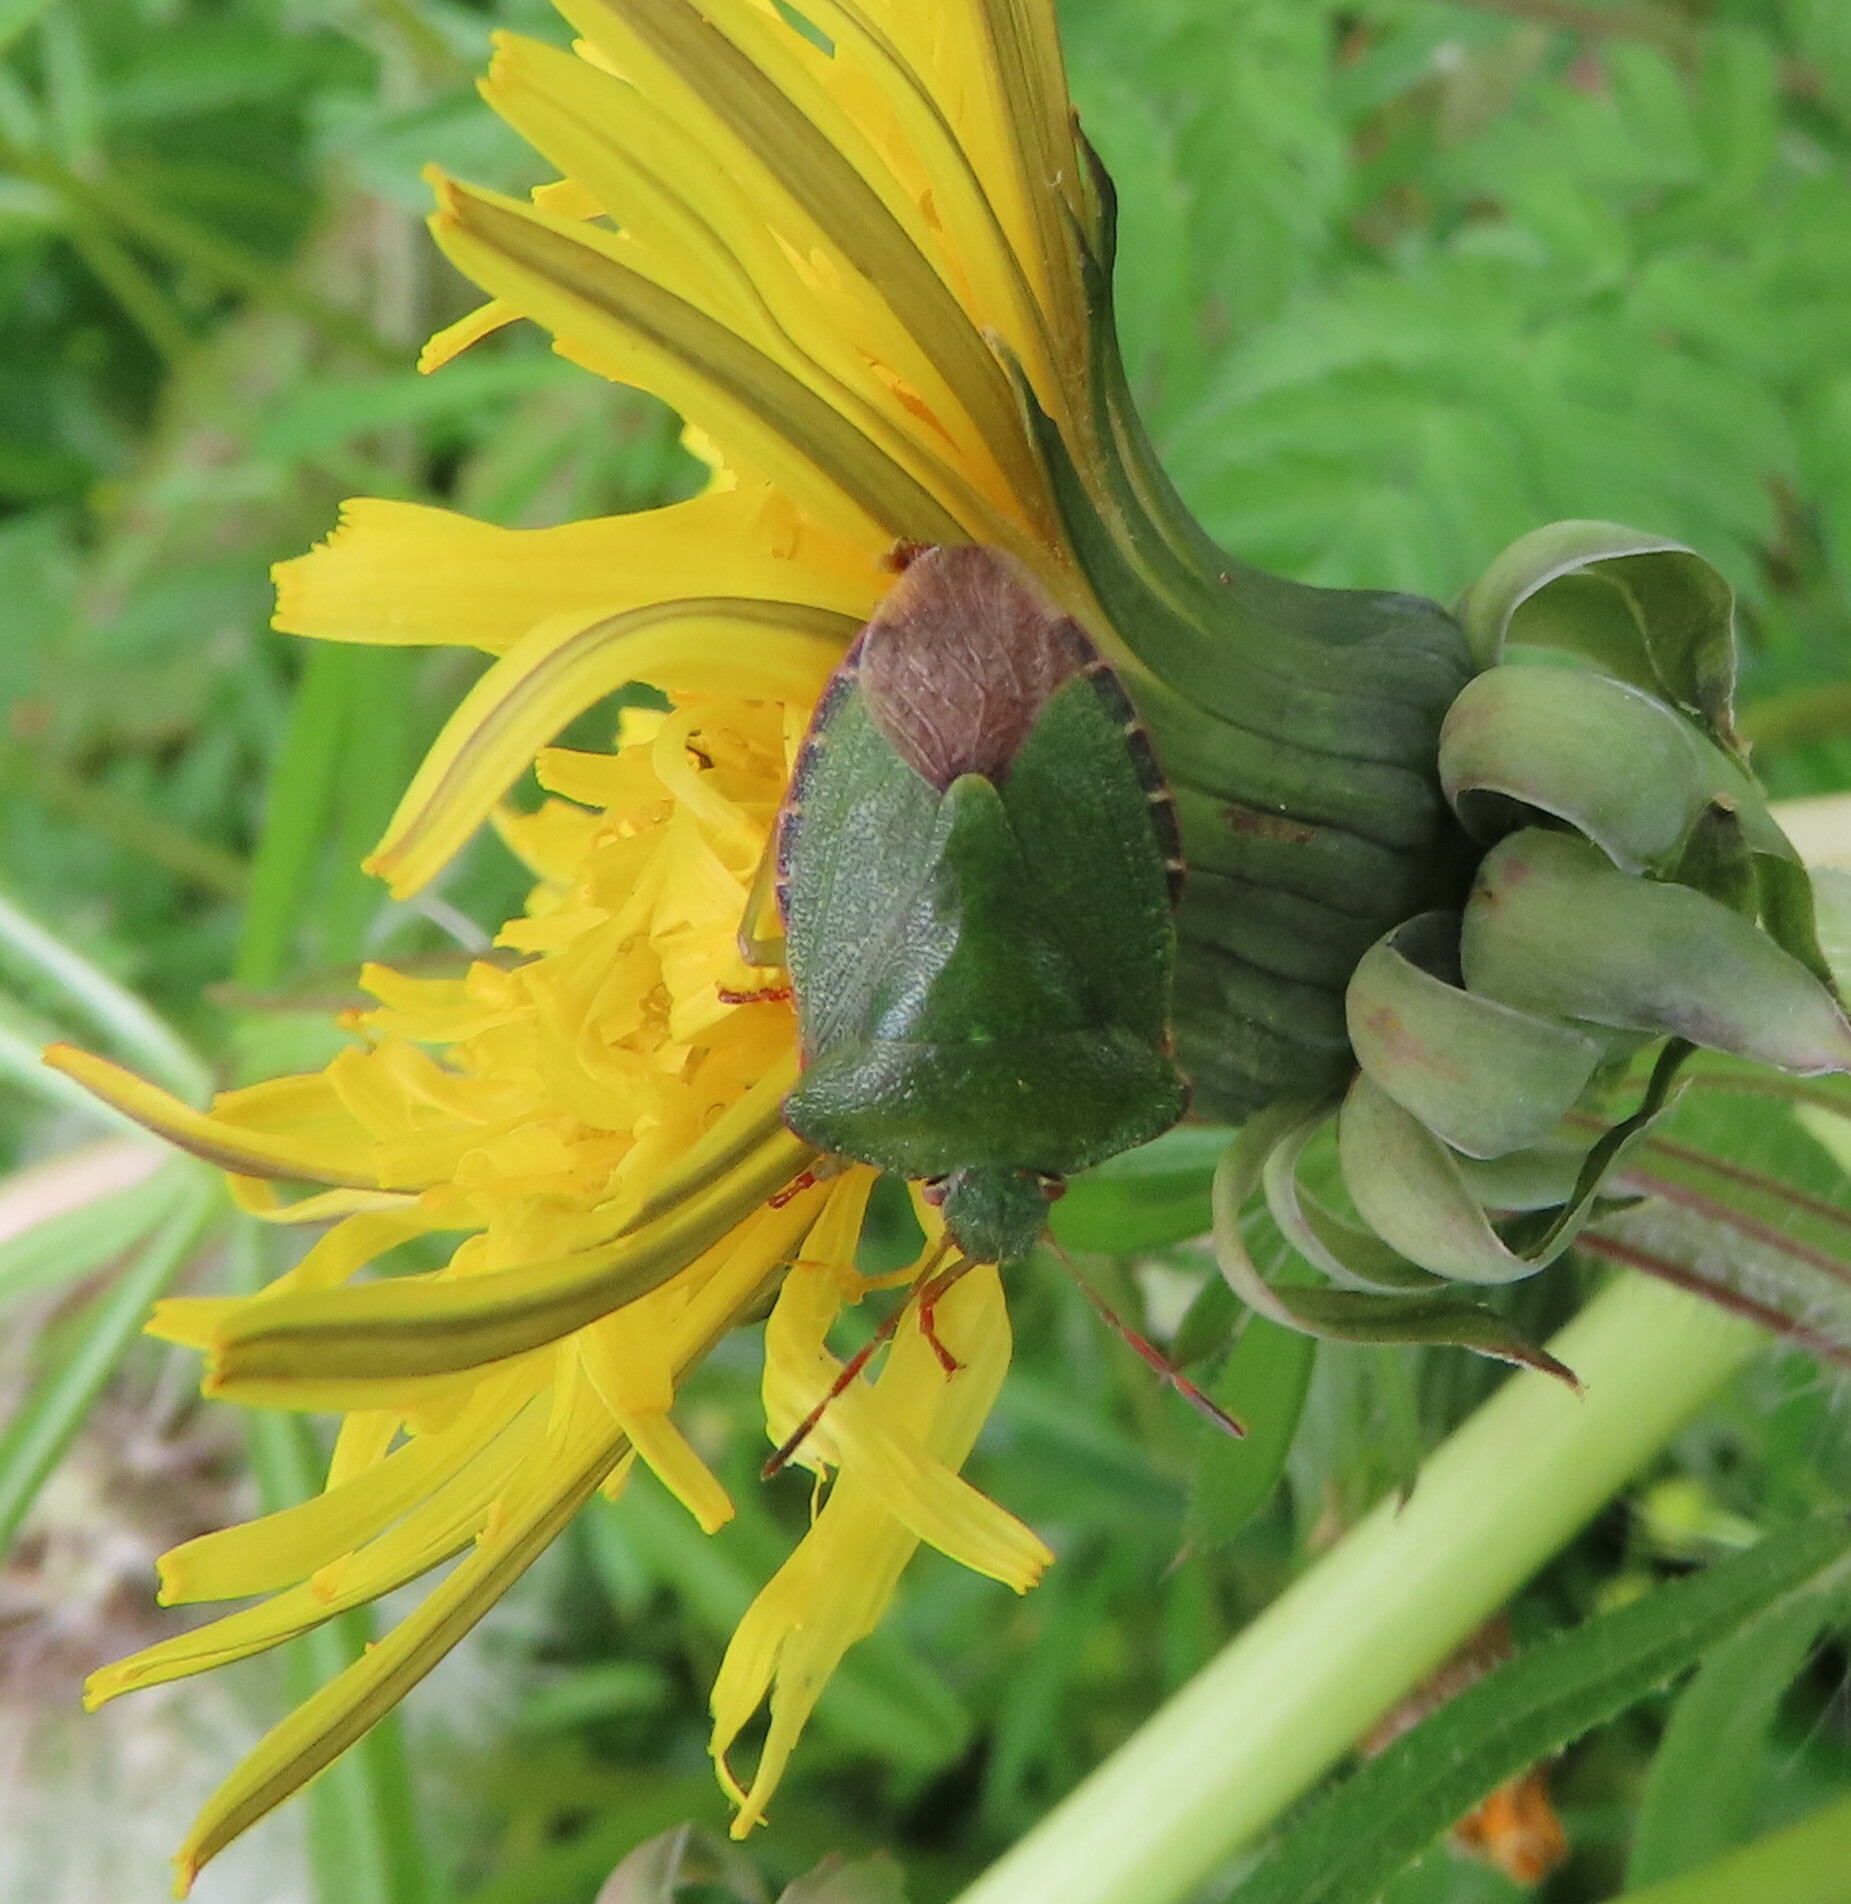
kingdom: Animalia
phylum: Arthropoda
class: Insecta
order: Hemiptera
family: Pentatomidae
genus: Palomena
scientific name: Palomena prasina
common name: Green shieldbug
